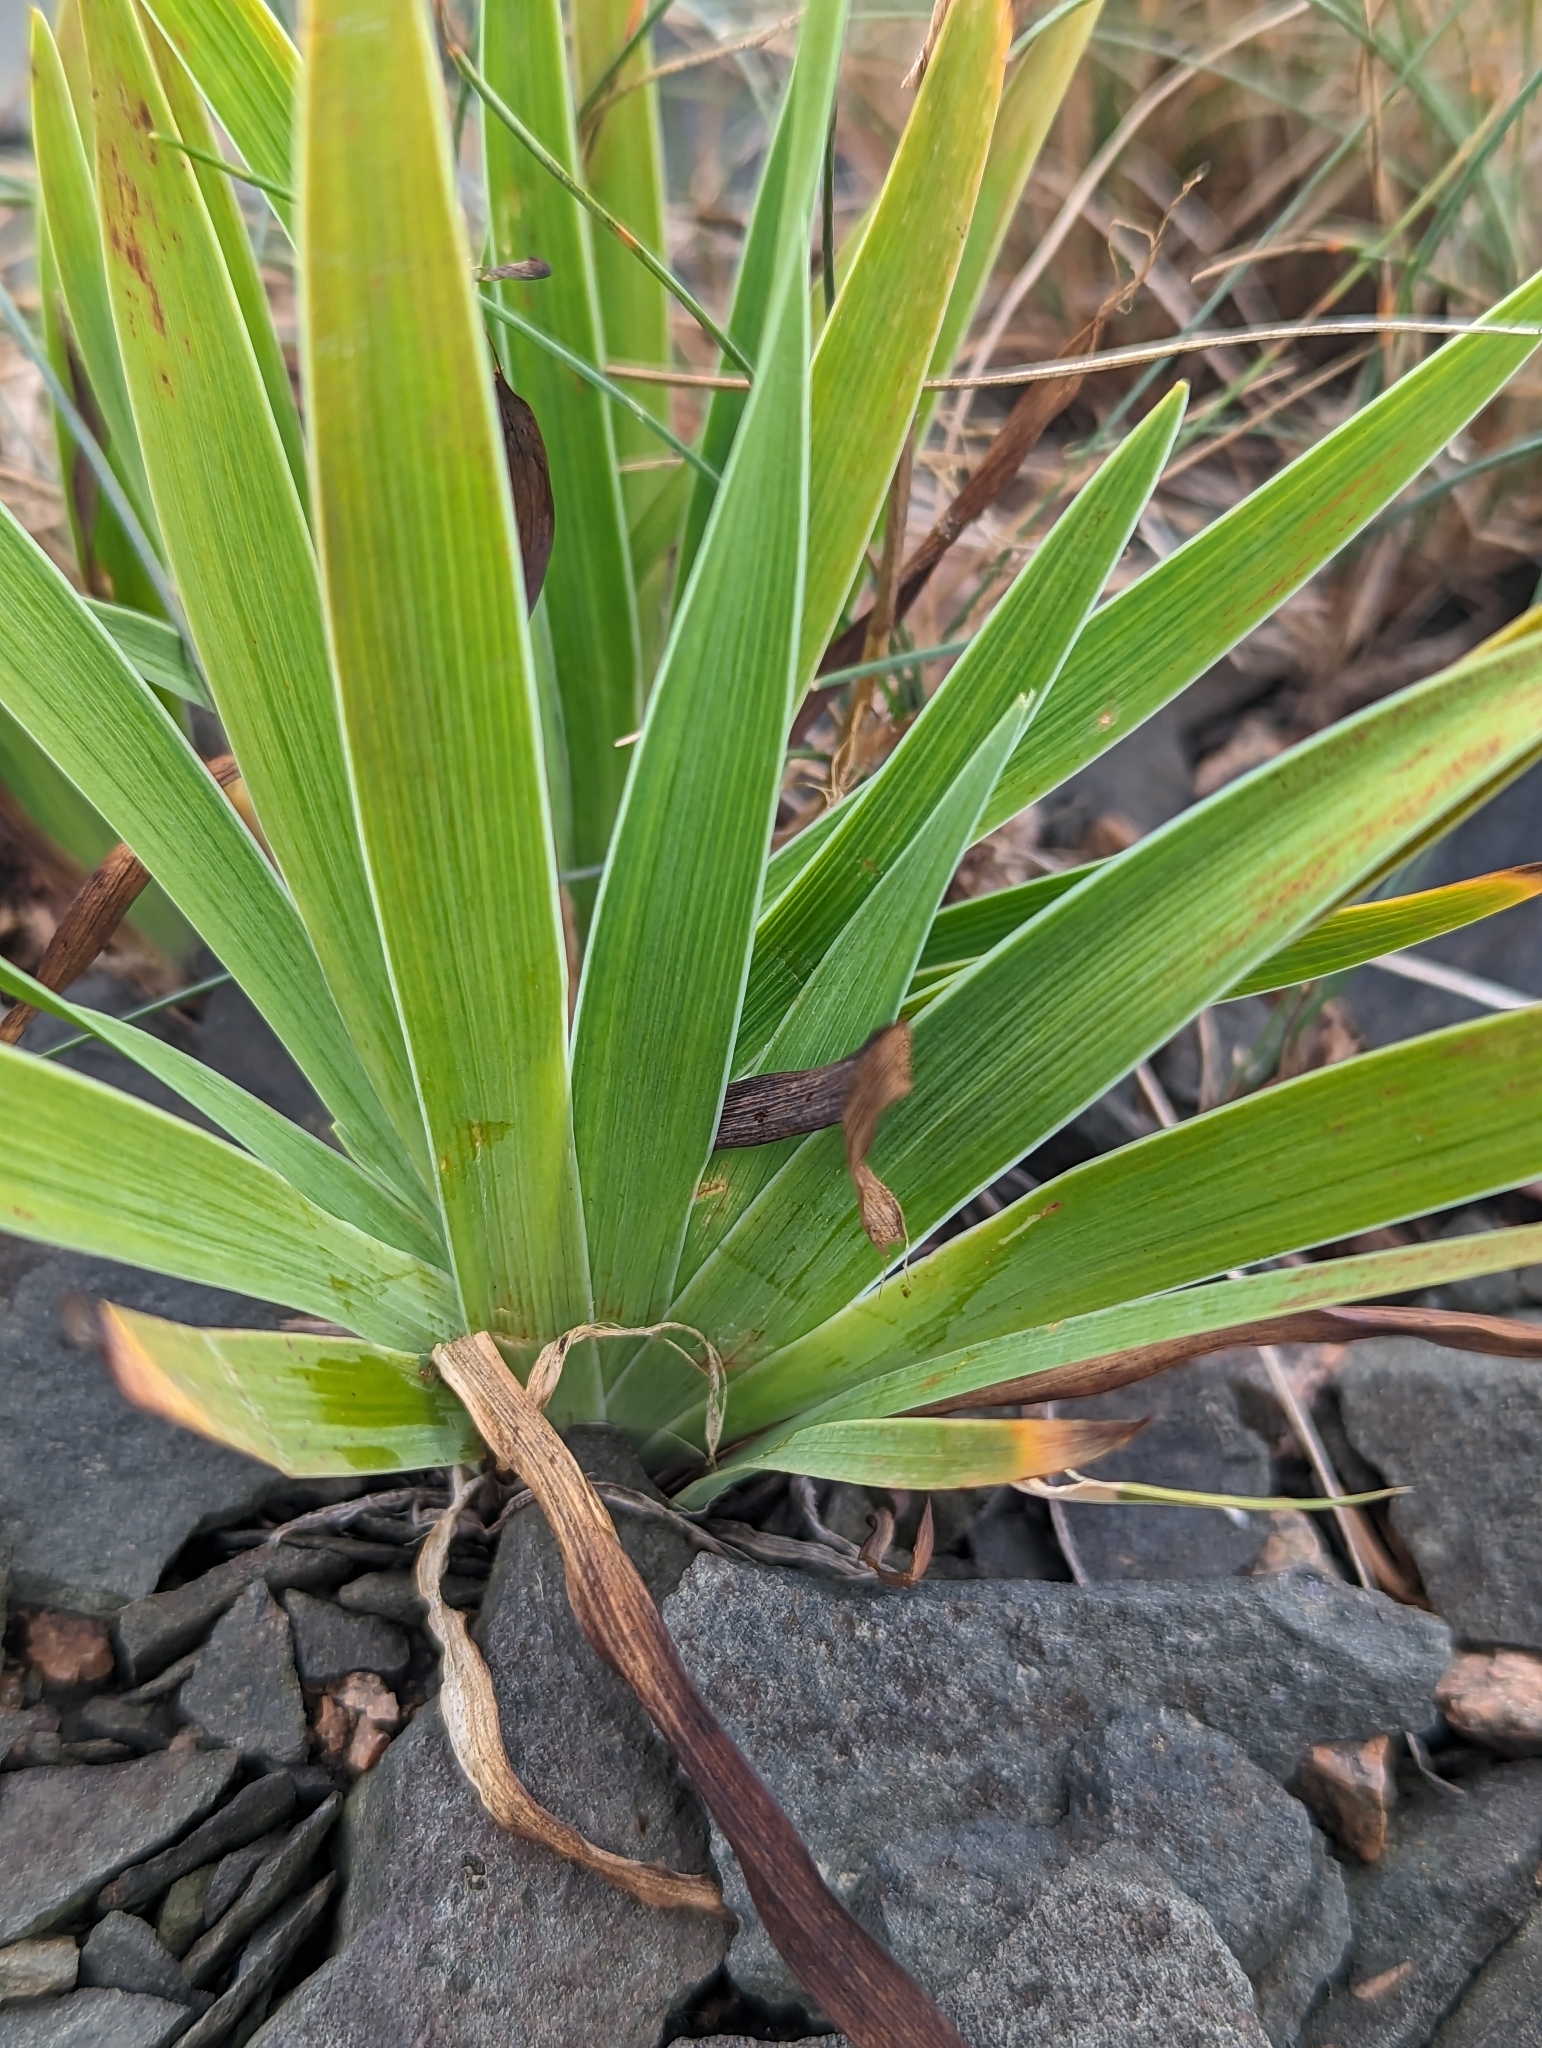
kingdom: Plantae
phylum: Tracheophyta
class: Liliopsida
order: Asparagales
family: Iridaceae
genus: Iris
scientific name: Iris hookeri
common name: Canada beach-head iris
